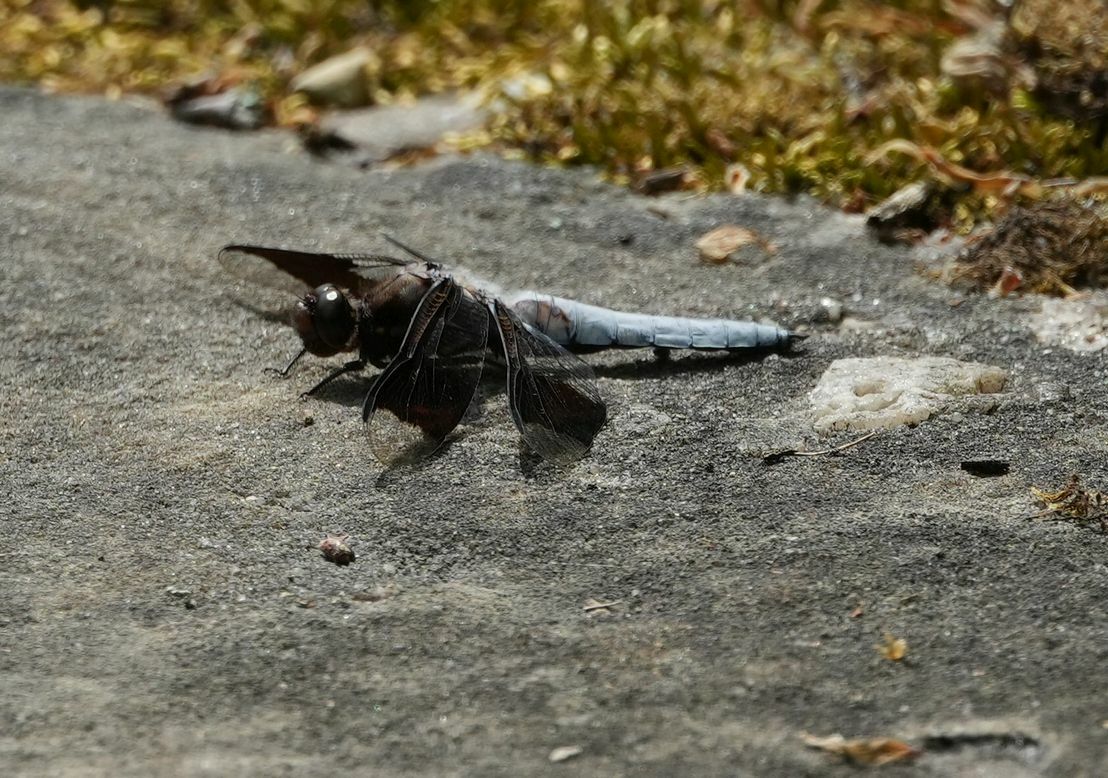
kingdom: Animalia
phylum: Arthropoda
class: Insecta
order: Odonata
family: Libellulidae
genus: Plathemis
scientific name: Plathemis lydia
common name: Common whitetail
